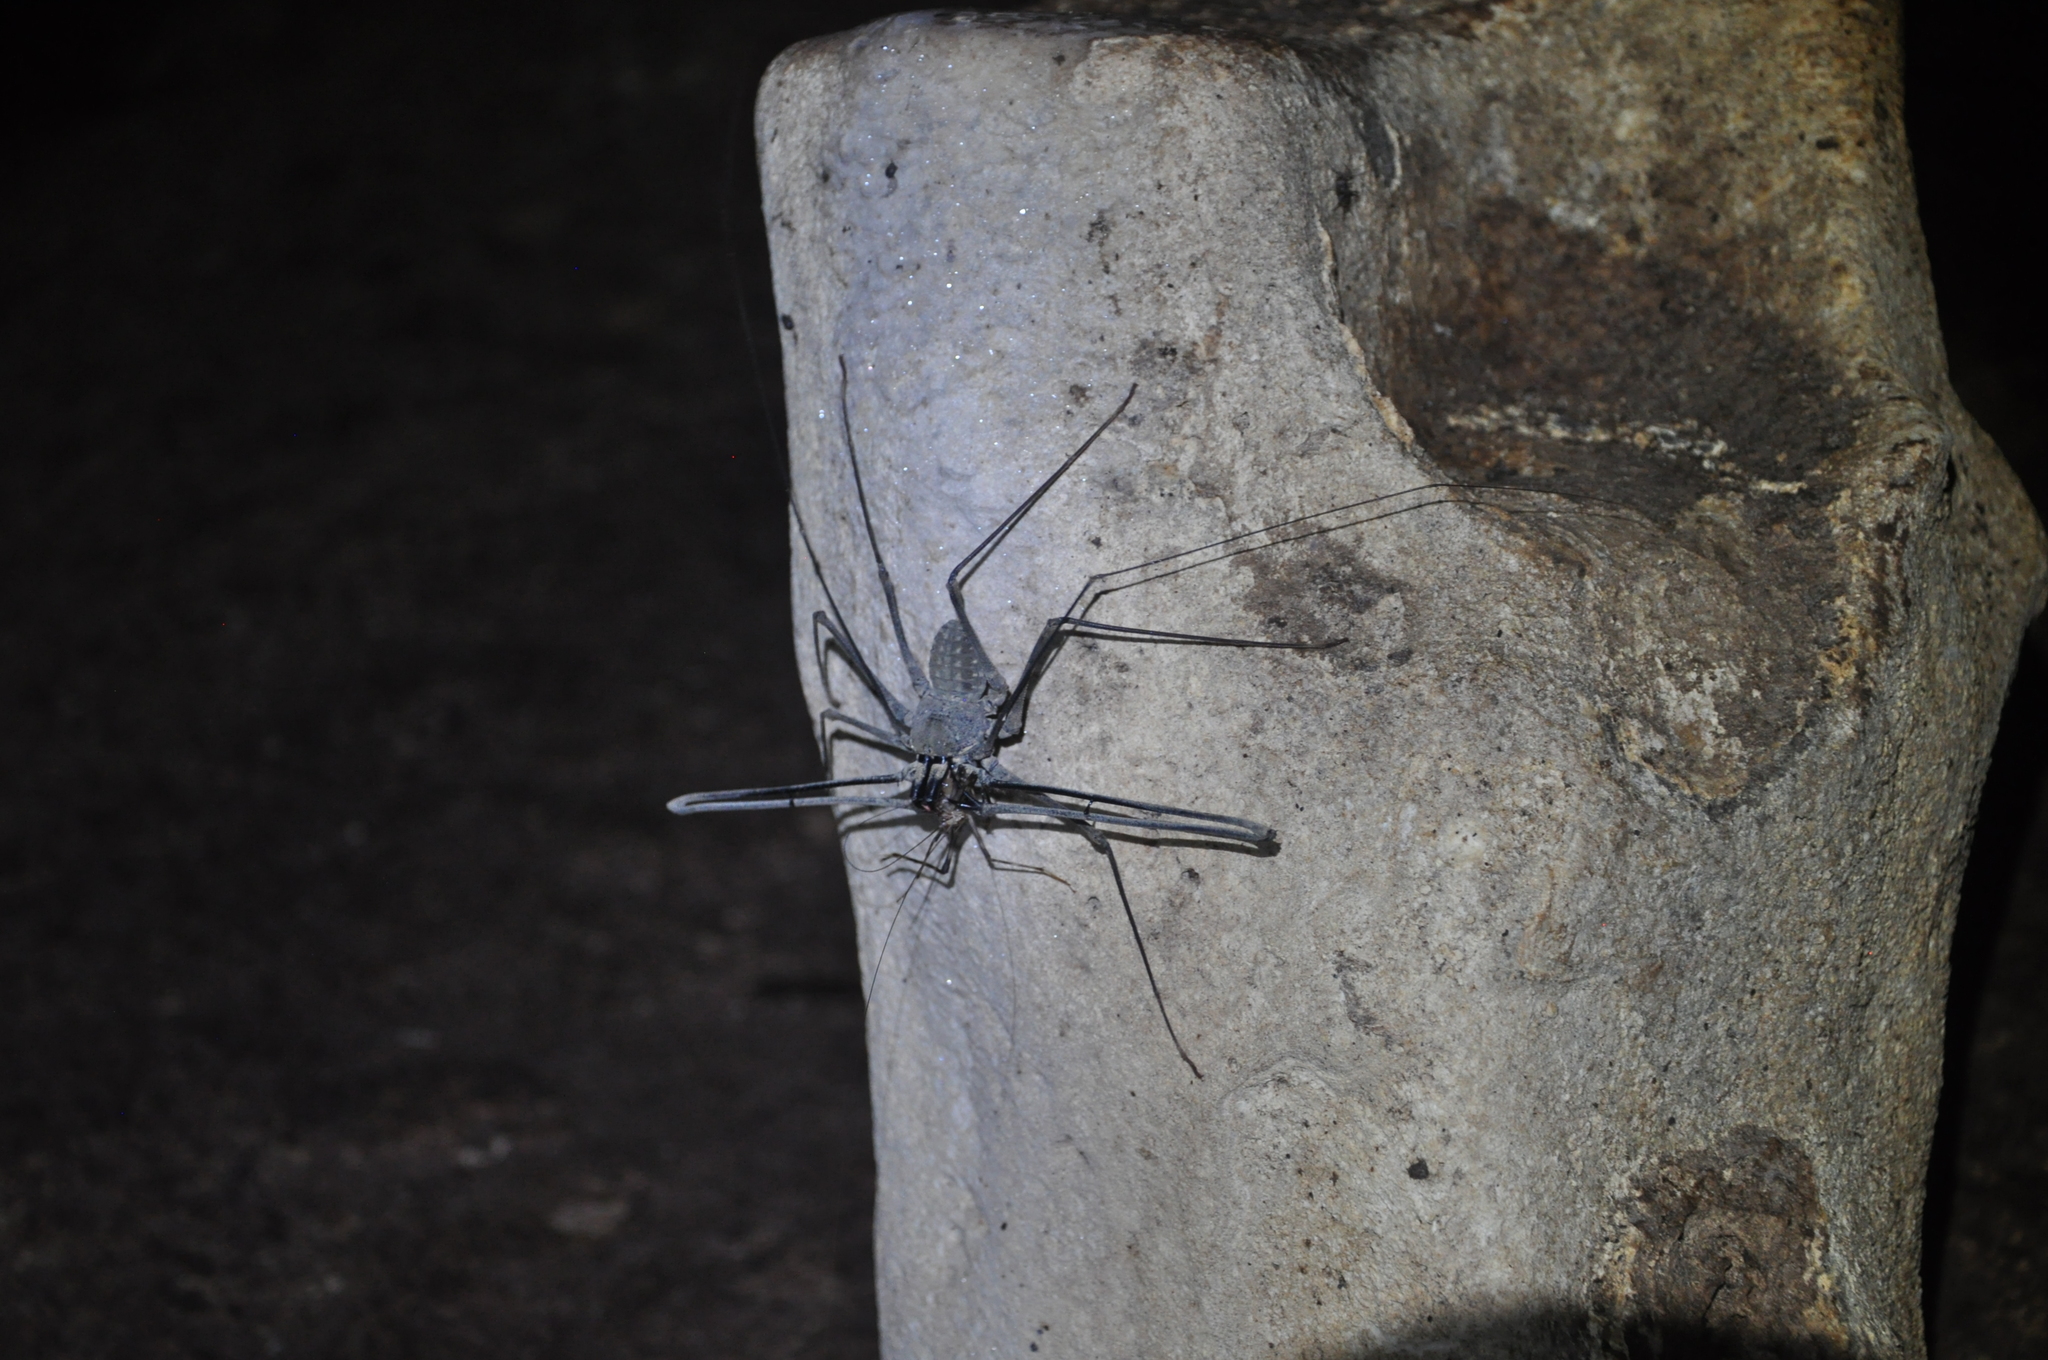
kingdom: Animalia
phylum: Arthropoda
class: Arachnida
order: Amblypygi
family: Phrynichidae
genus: Euphrynichus
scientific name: Euphrynichus amanica
